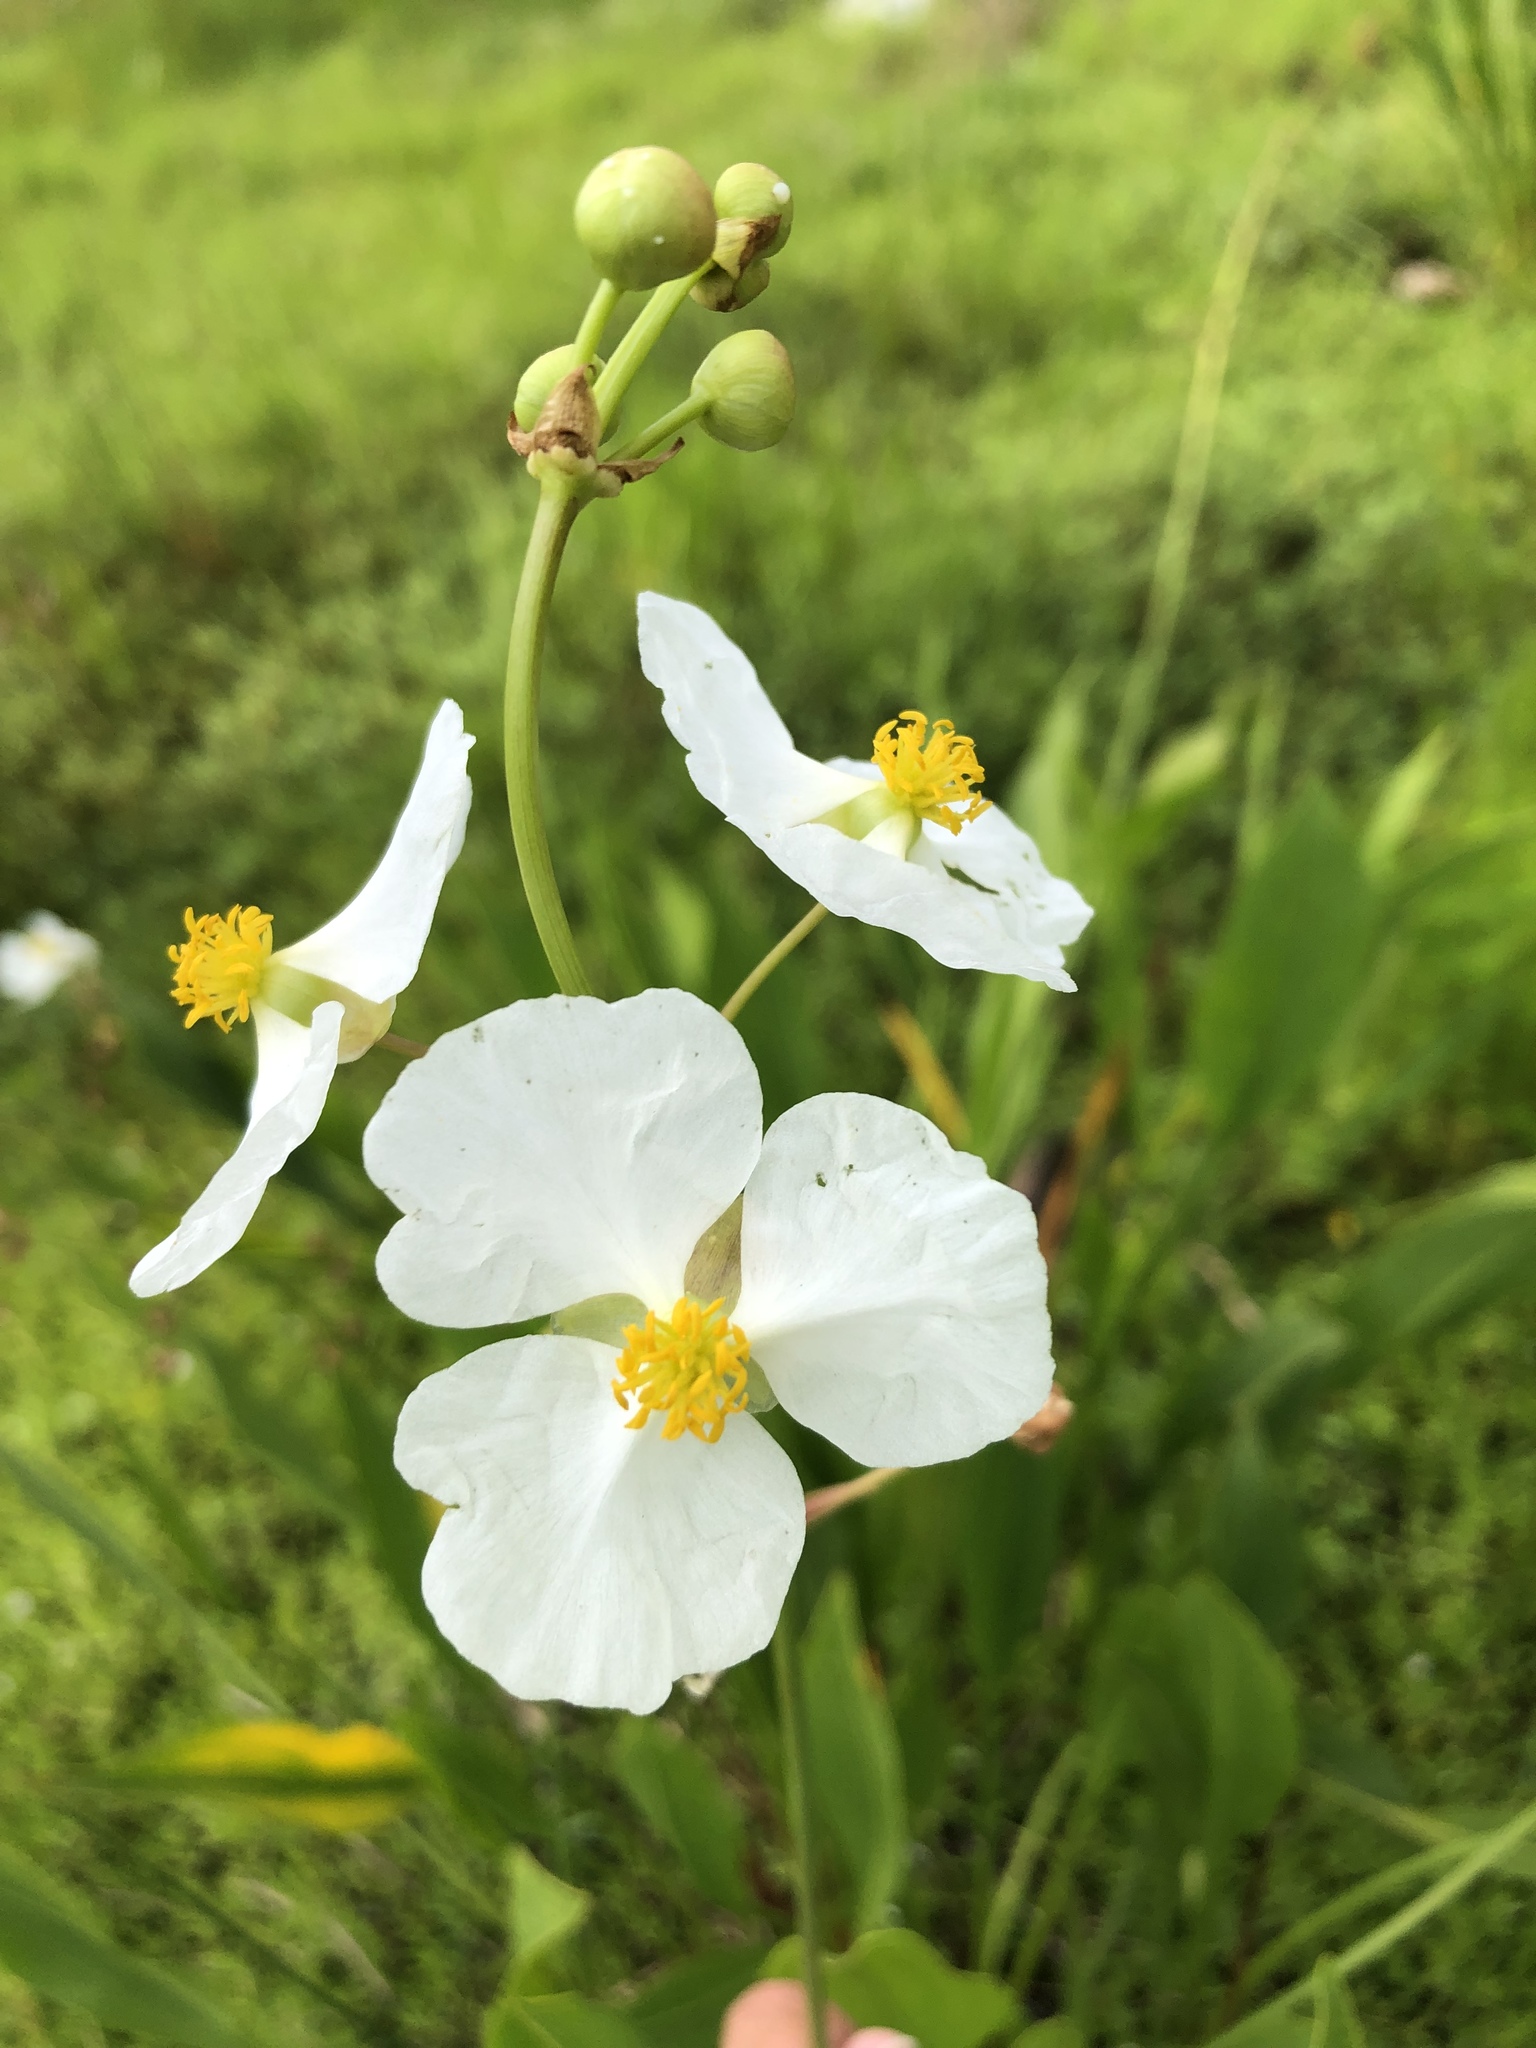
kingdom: Plantae
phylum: Tracheophyta
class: Liliopsida
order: Alismatales
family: Alismataceae
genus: Sagittaria
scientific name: Sagittaria lancifolia
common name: Lance-leaf arrowhead
